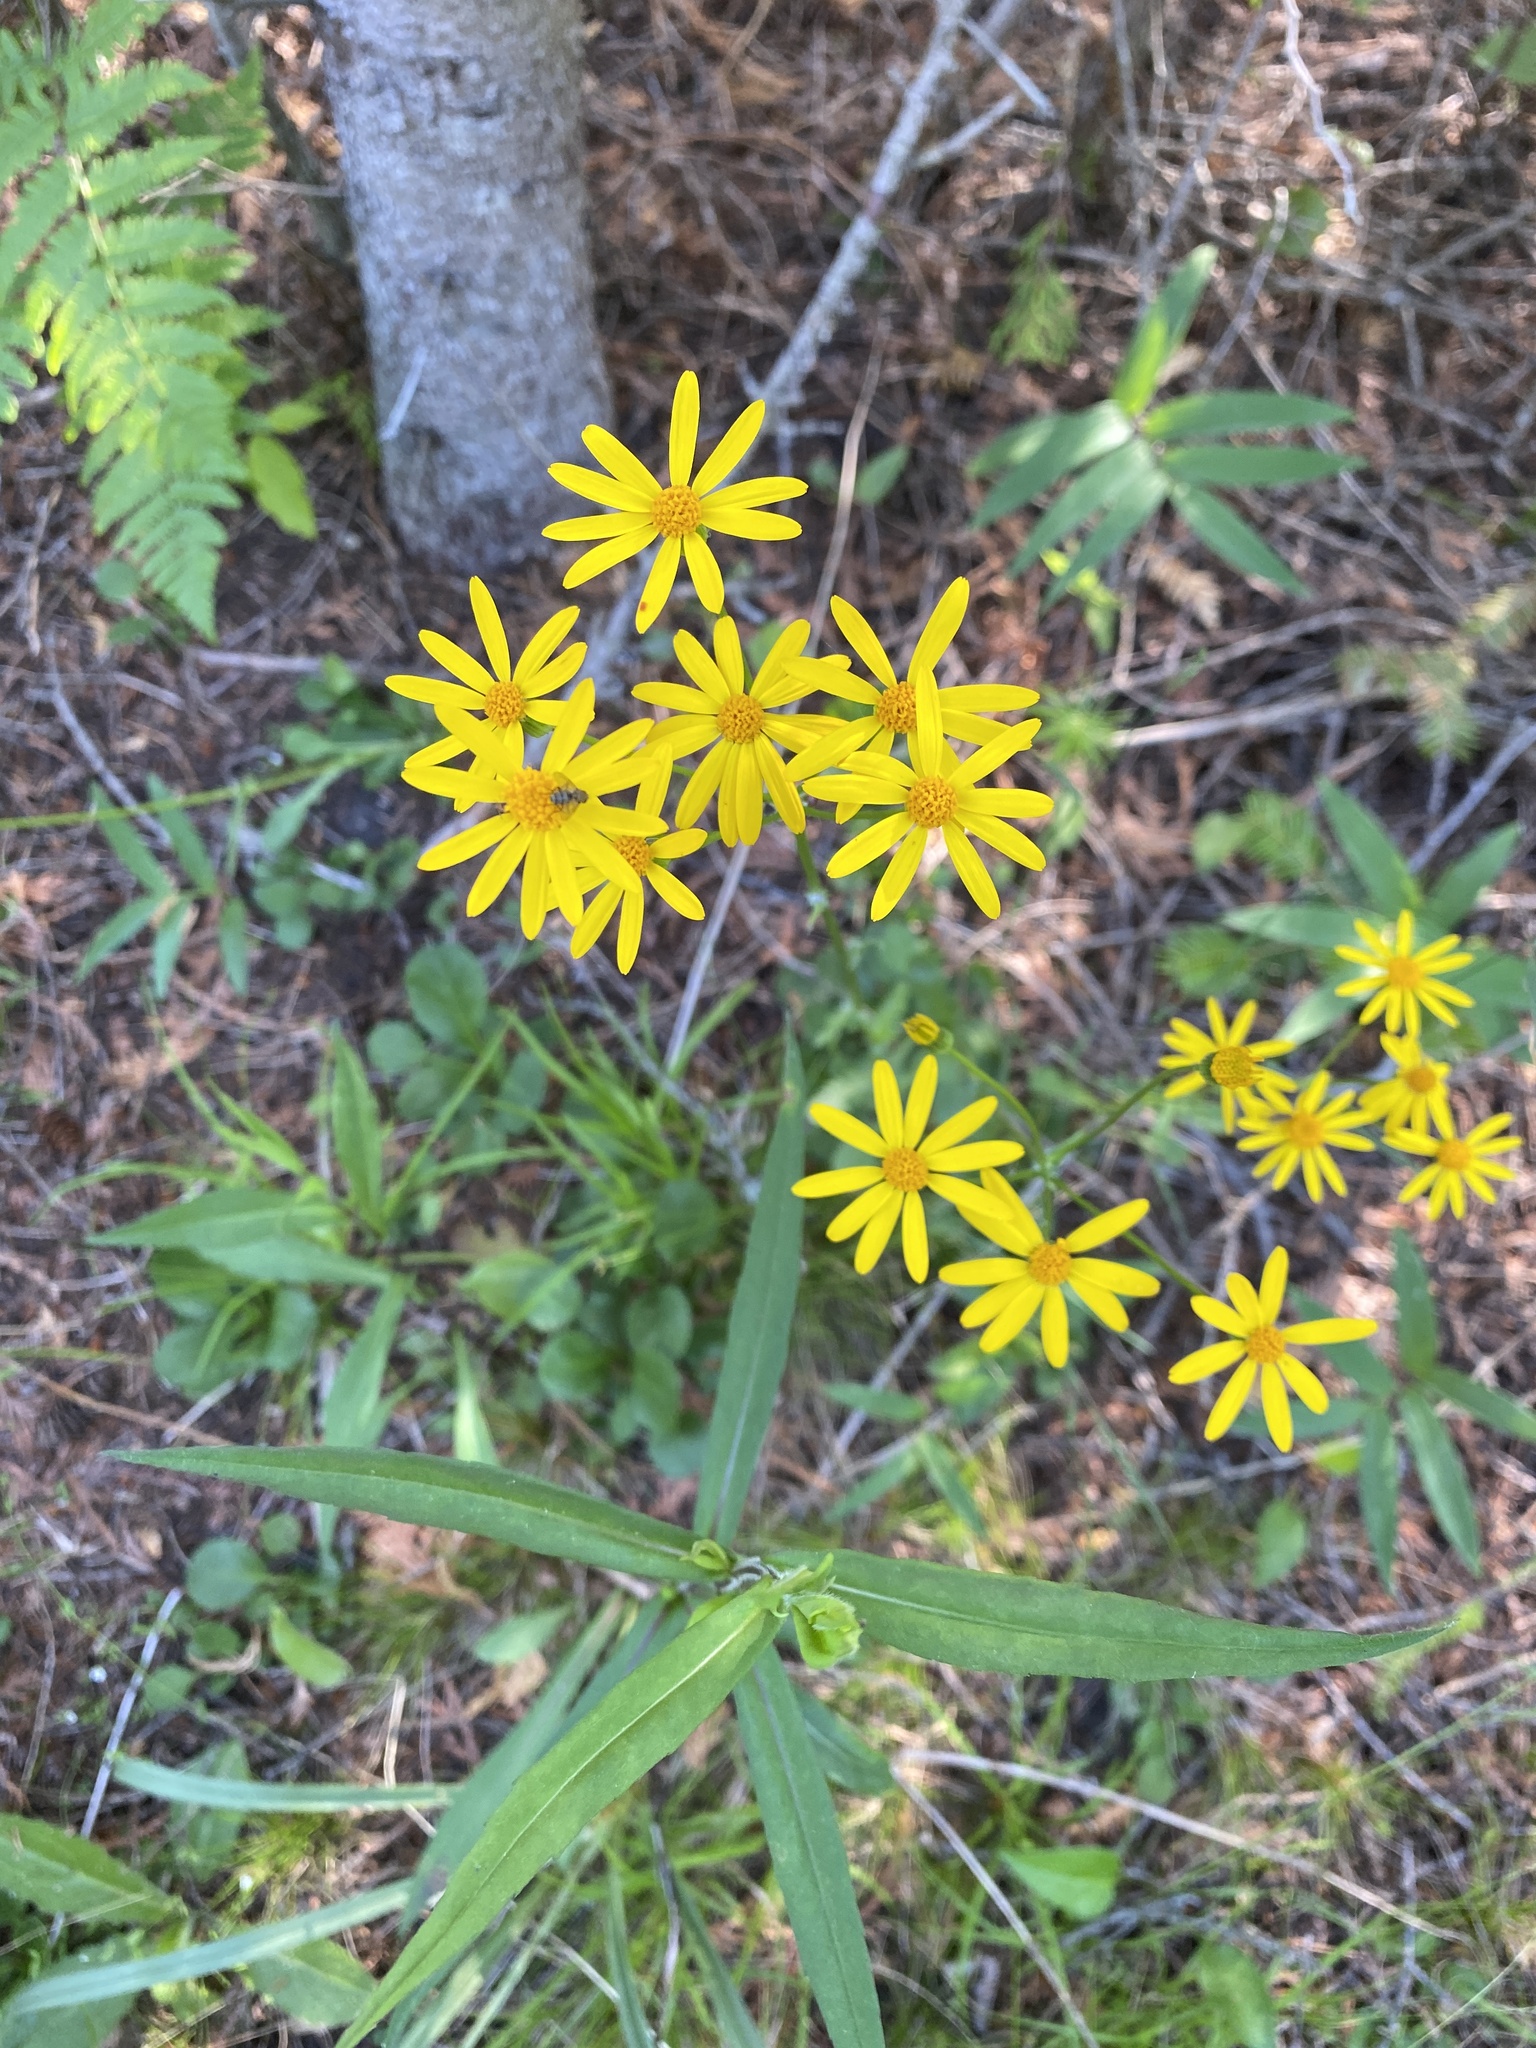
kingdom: Plantae
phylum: Tracheophyta
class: Magnoliopsida
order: Asterales
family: Asteraceae
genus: Packera
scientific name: Packera obovata
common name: Round-leaf ragwort
